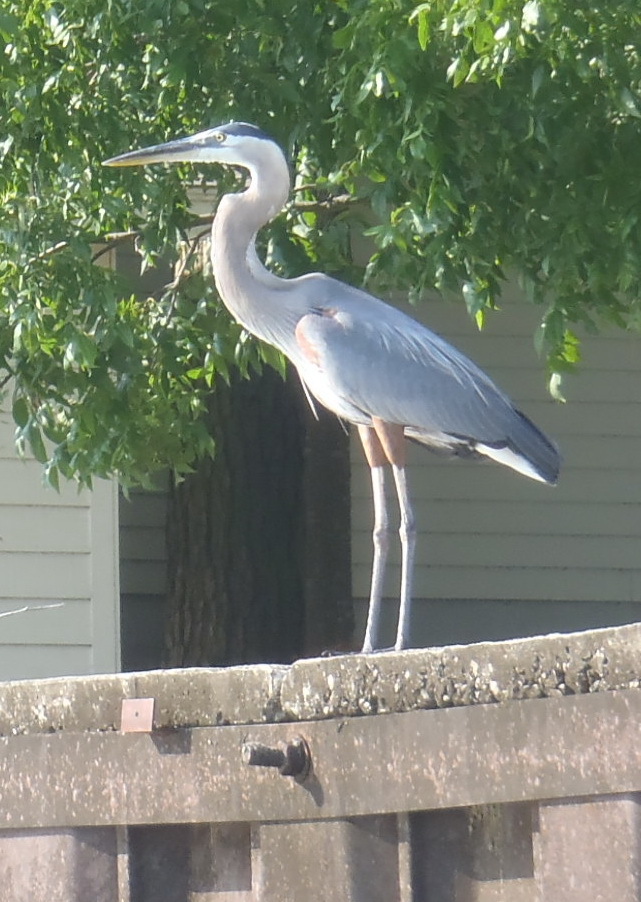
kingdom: Animalia
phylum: Chordata
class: Aves
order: Pelecaniformes
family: Ardeidae
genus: Ardea
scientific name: Ardea herodias
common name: Great blue heron
